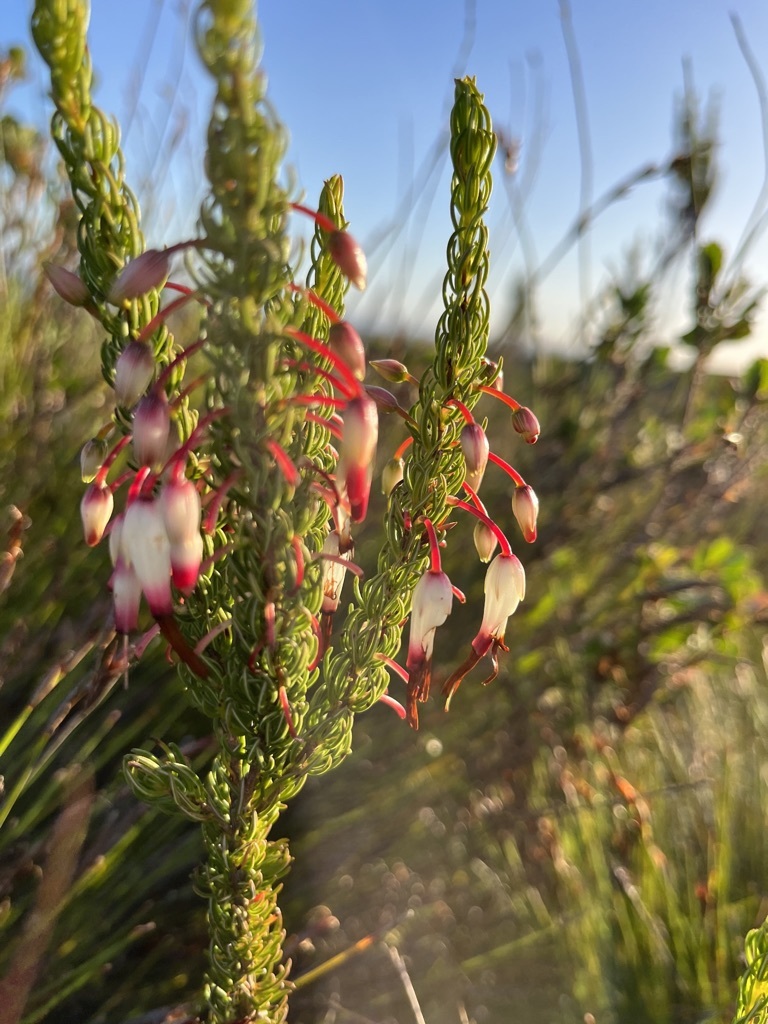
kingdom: Plantae
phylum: Tracheophyta
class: Magnoliopsida
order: Ericales
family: Ericaceae
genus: Erica
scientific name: Erica plukenetii
